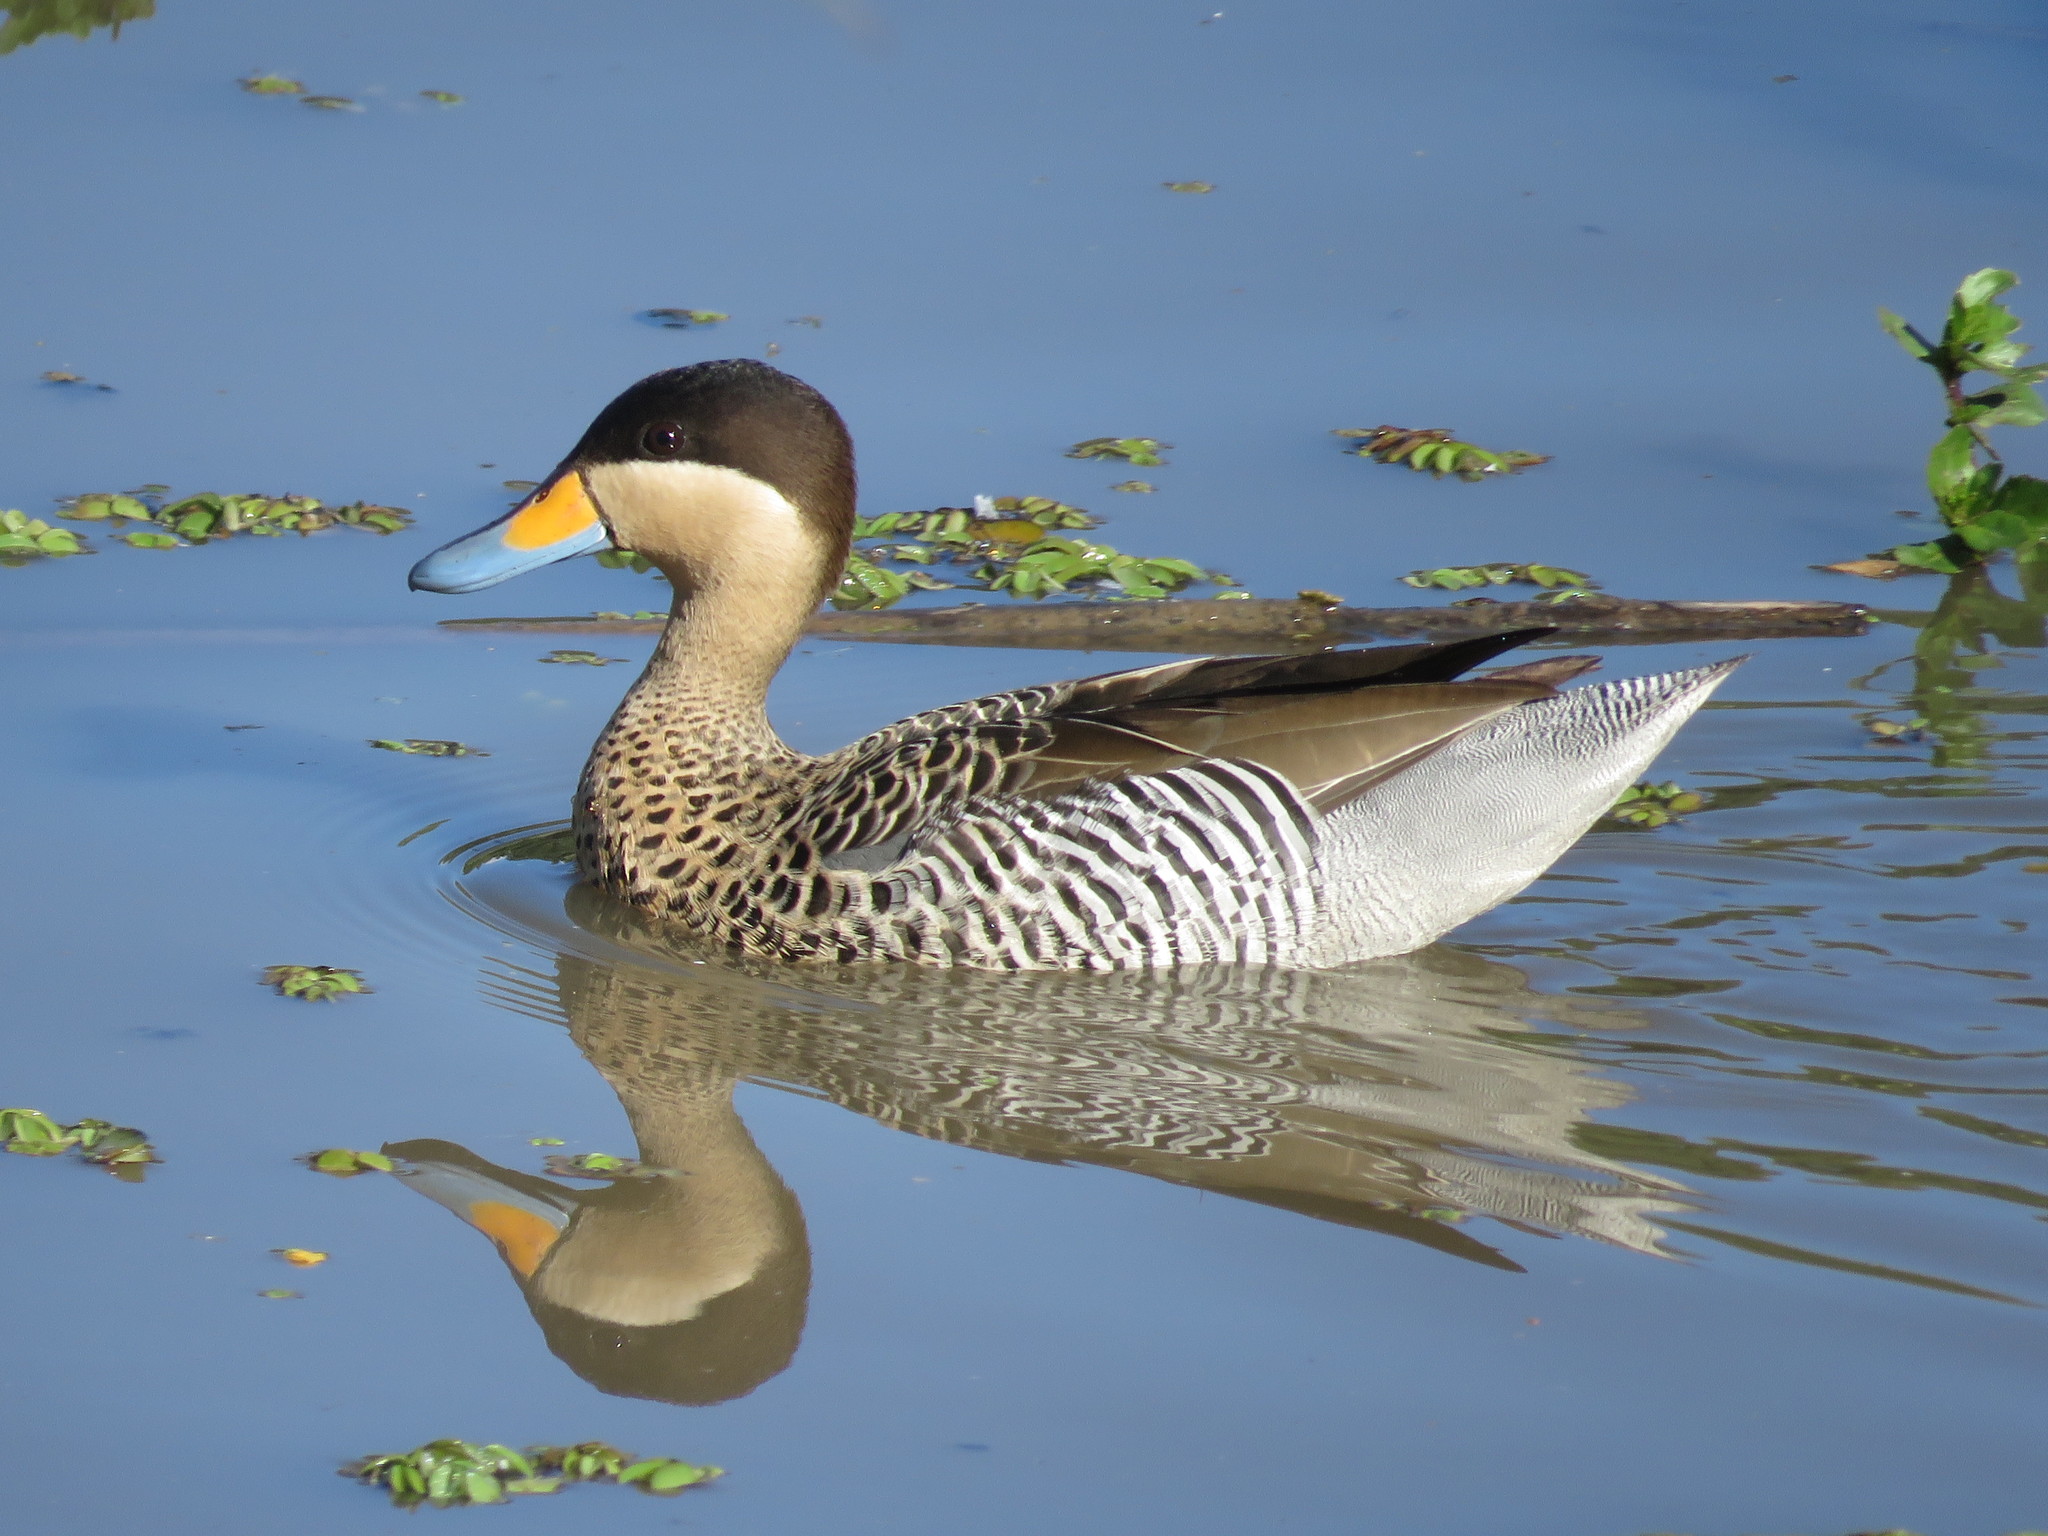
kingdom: Animalia
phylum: Chordata
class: Aves
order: Anseriformes
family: Anatidae
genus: Spatula
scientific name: Spatula versicolor
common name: Silver teal
